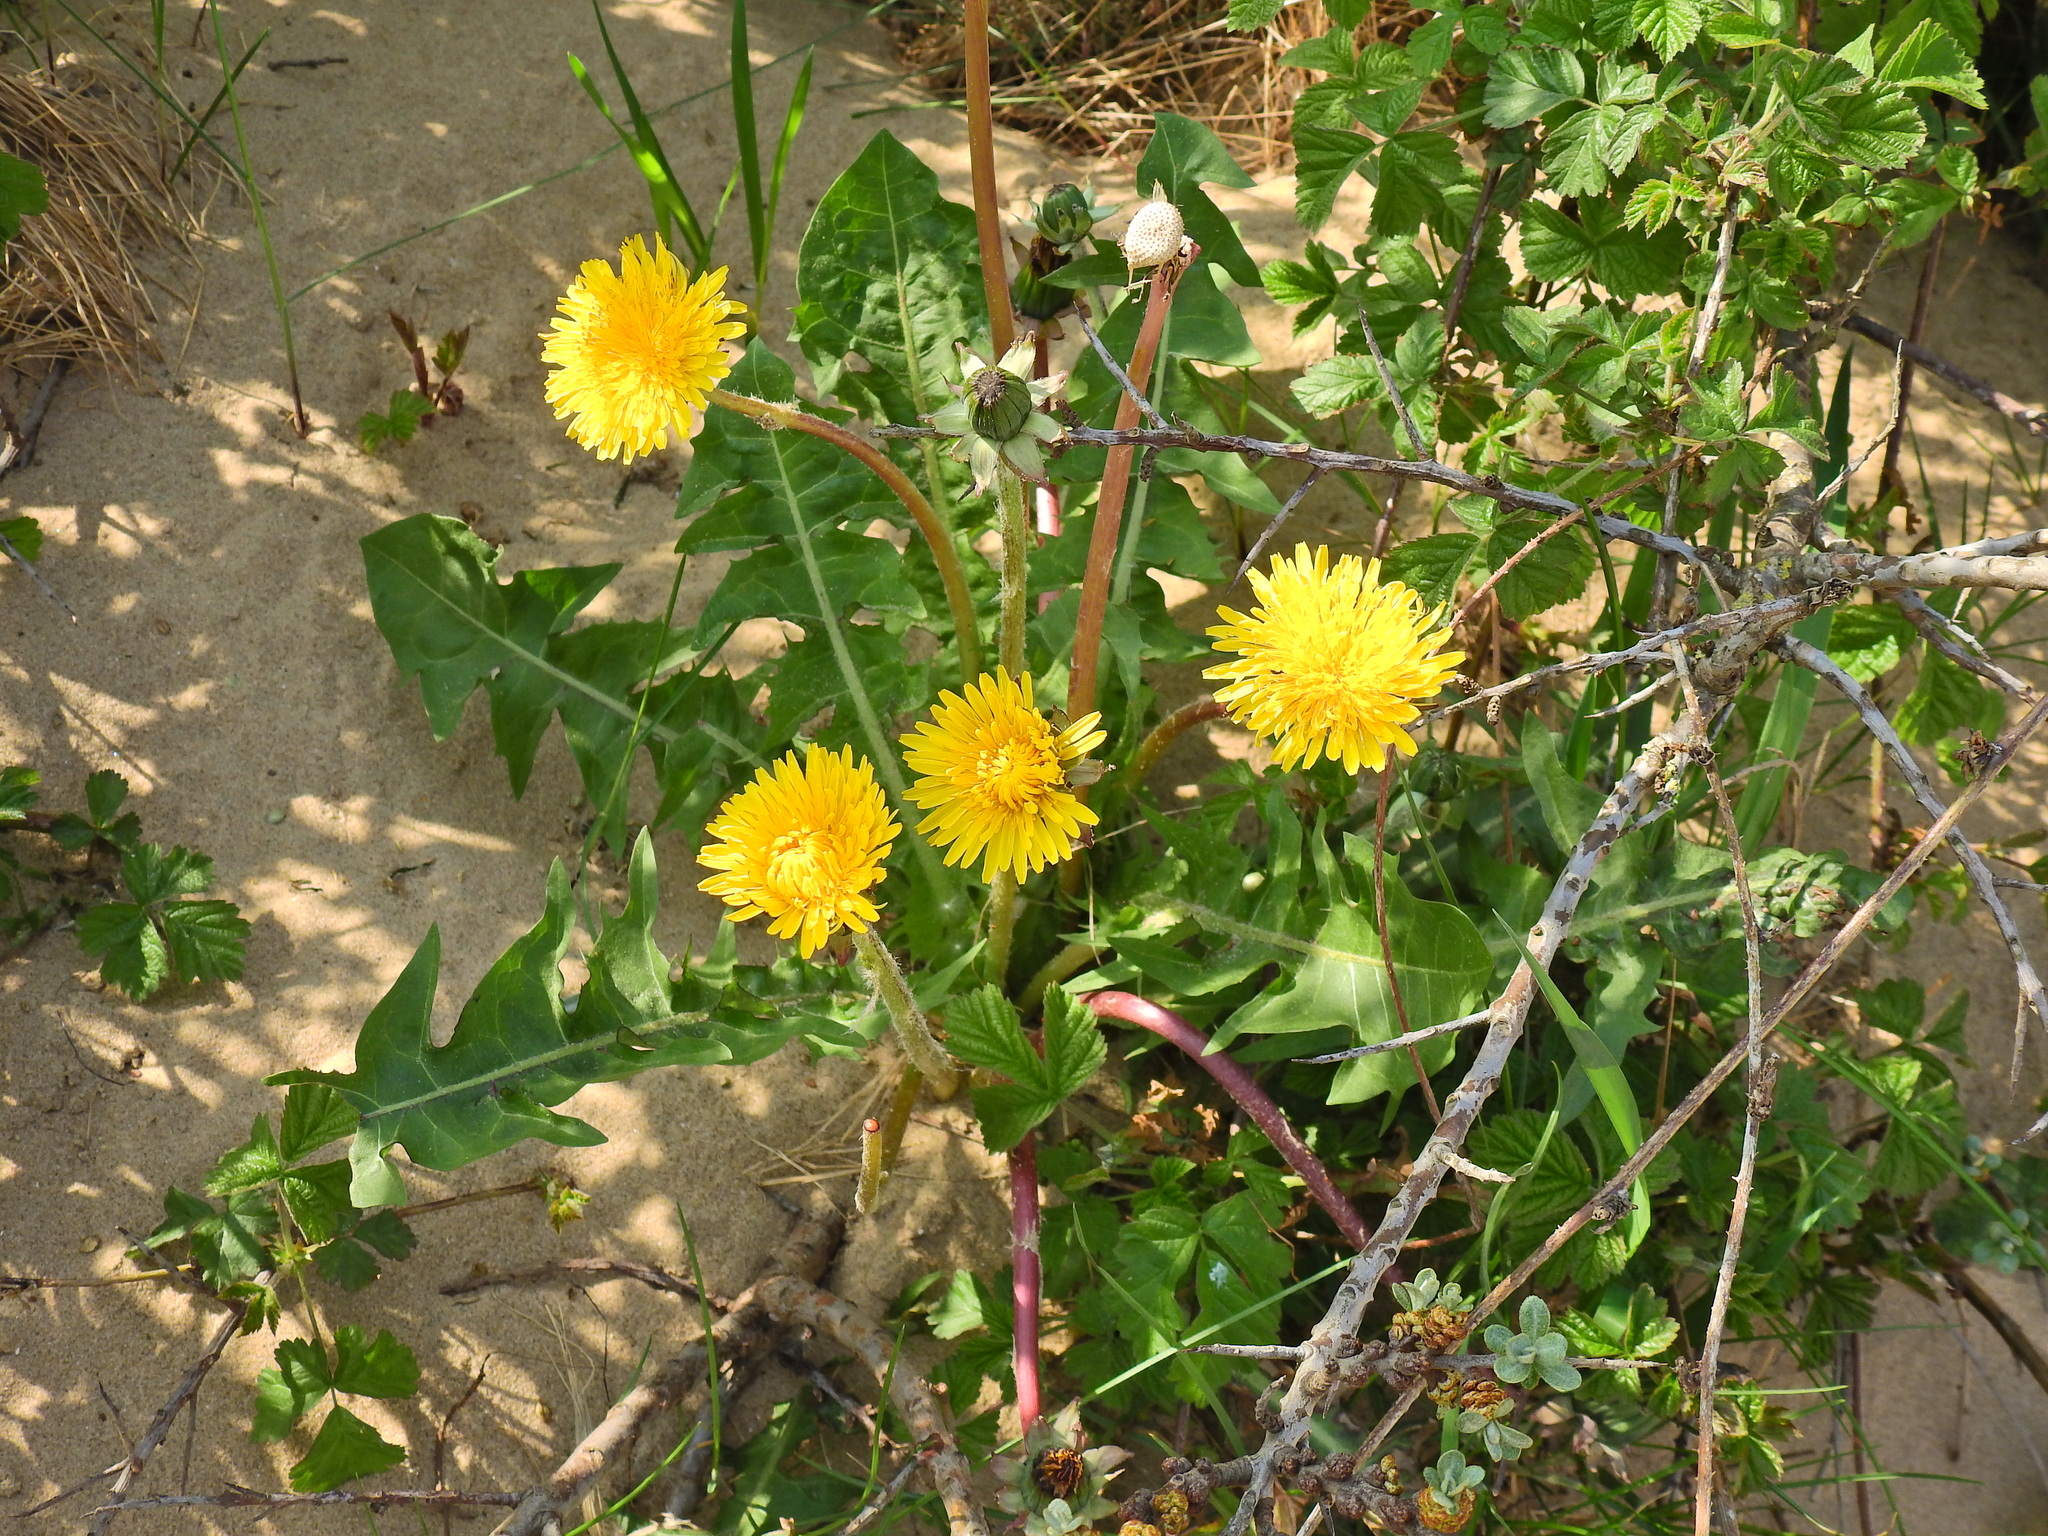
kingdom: Plantae
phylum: Tracheophyta
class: Magnoliopsida
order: Asterales
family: Asteraceae
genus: Taraxacum
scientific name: Taraxacum officinale
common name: Common dandelion
